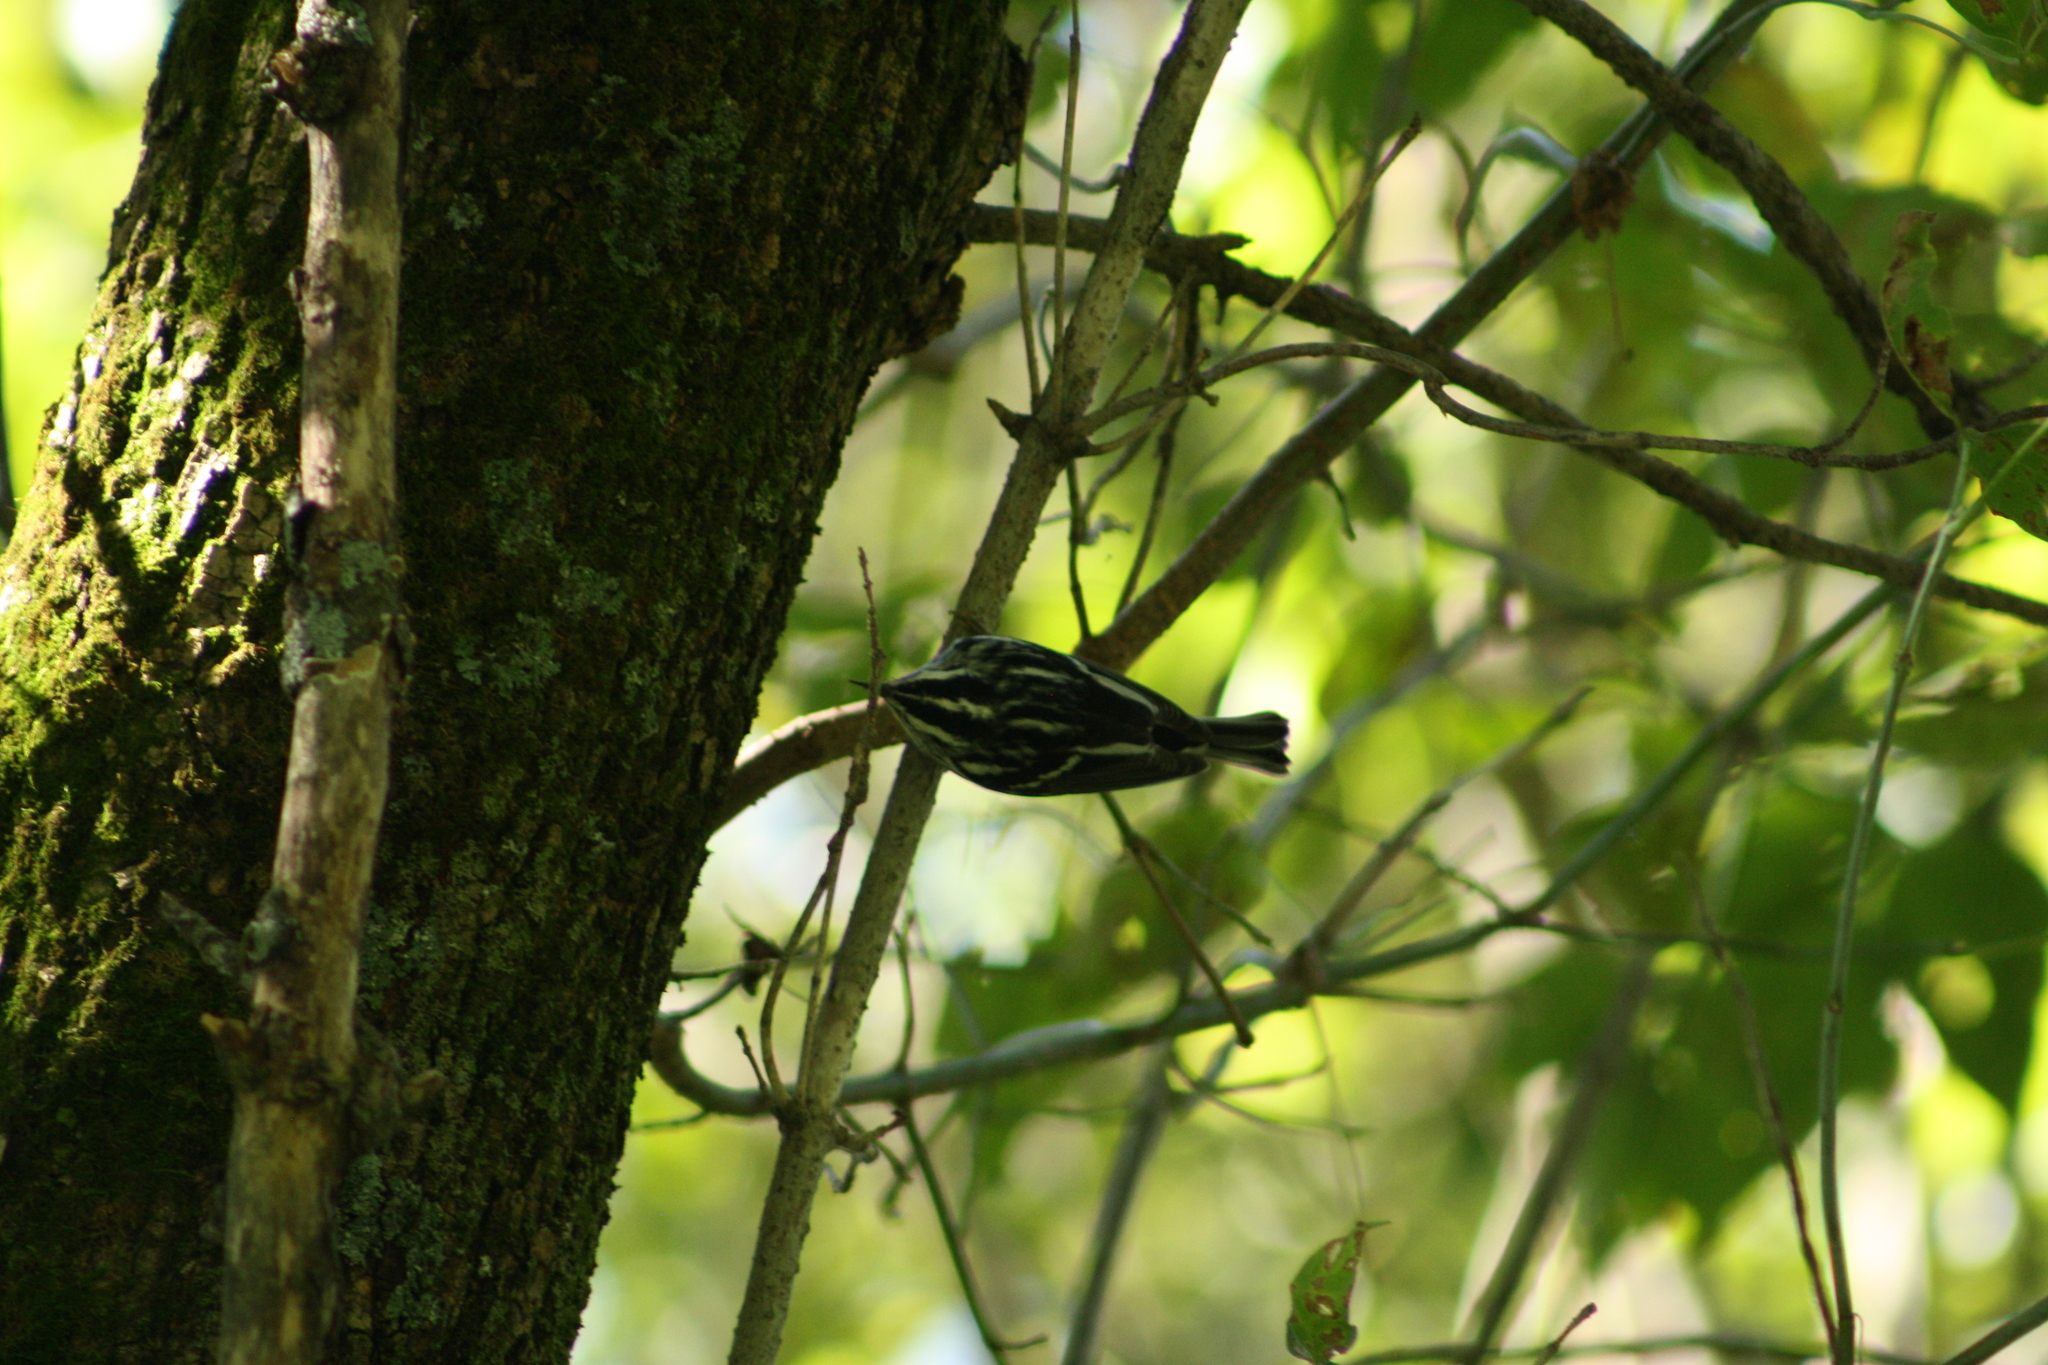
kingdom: Animalia
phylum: Chordata
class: Aves
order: Passeriformes
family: Parulidae
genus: Mniotilta
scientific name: Mniotilta varia
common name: Black-and-white warbler
